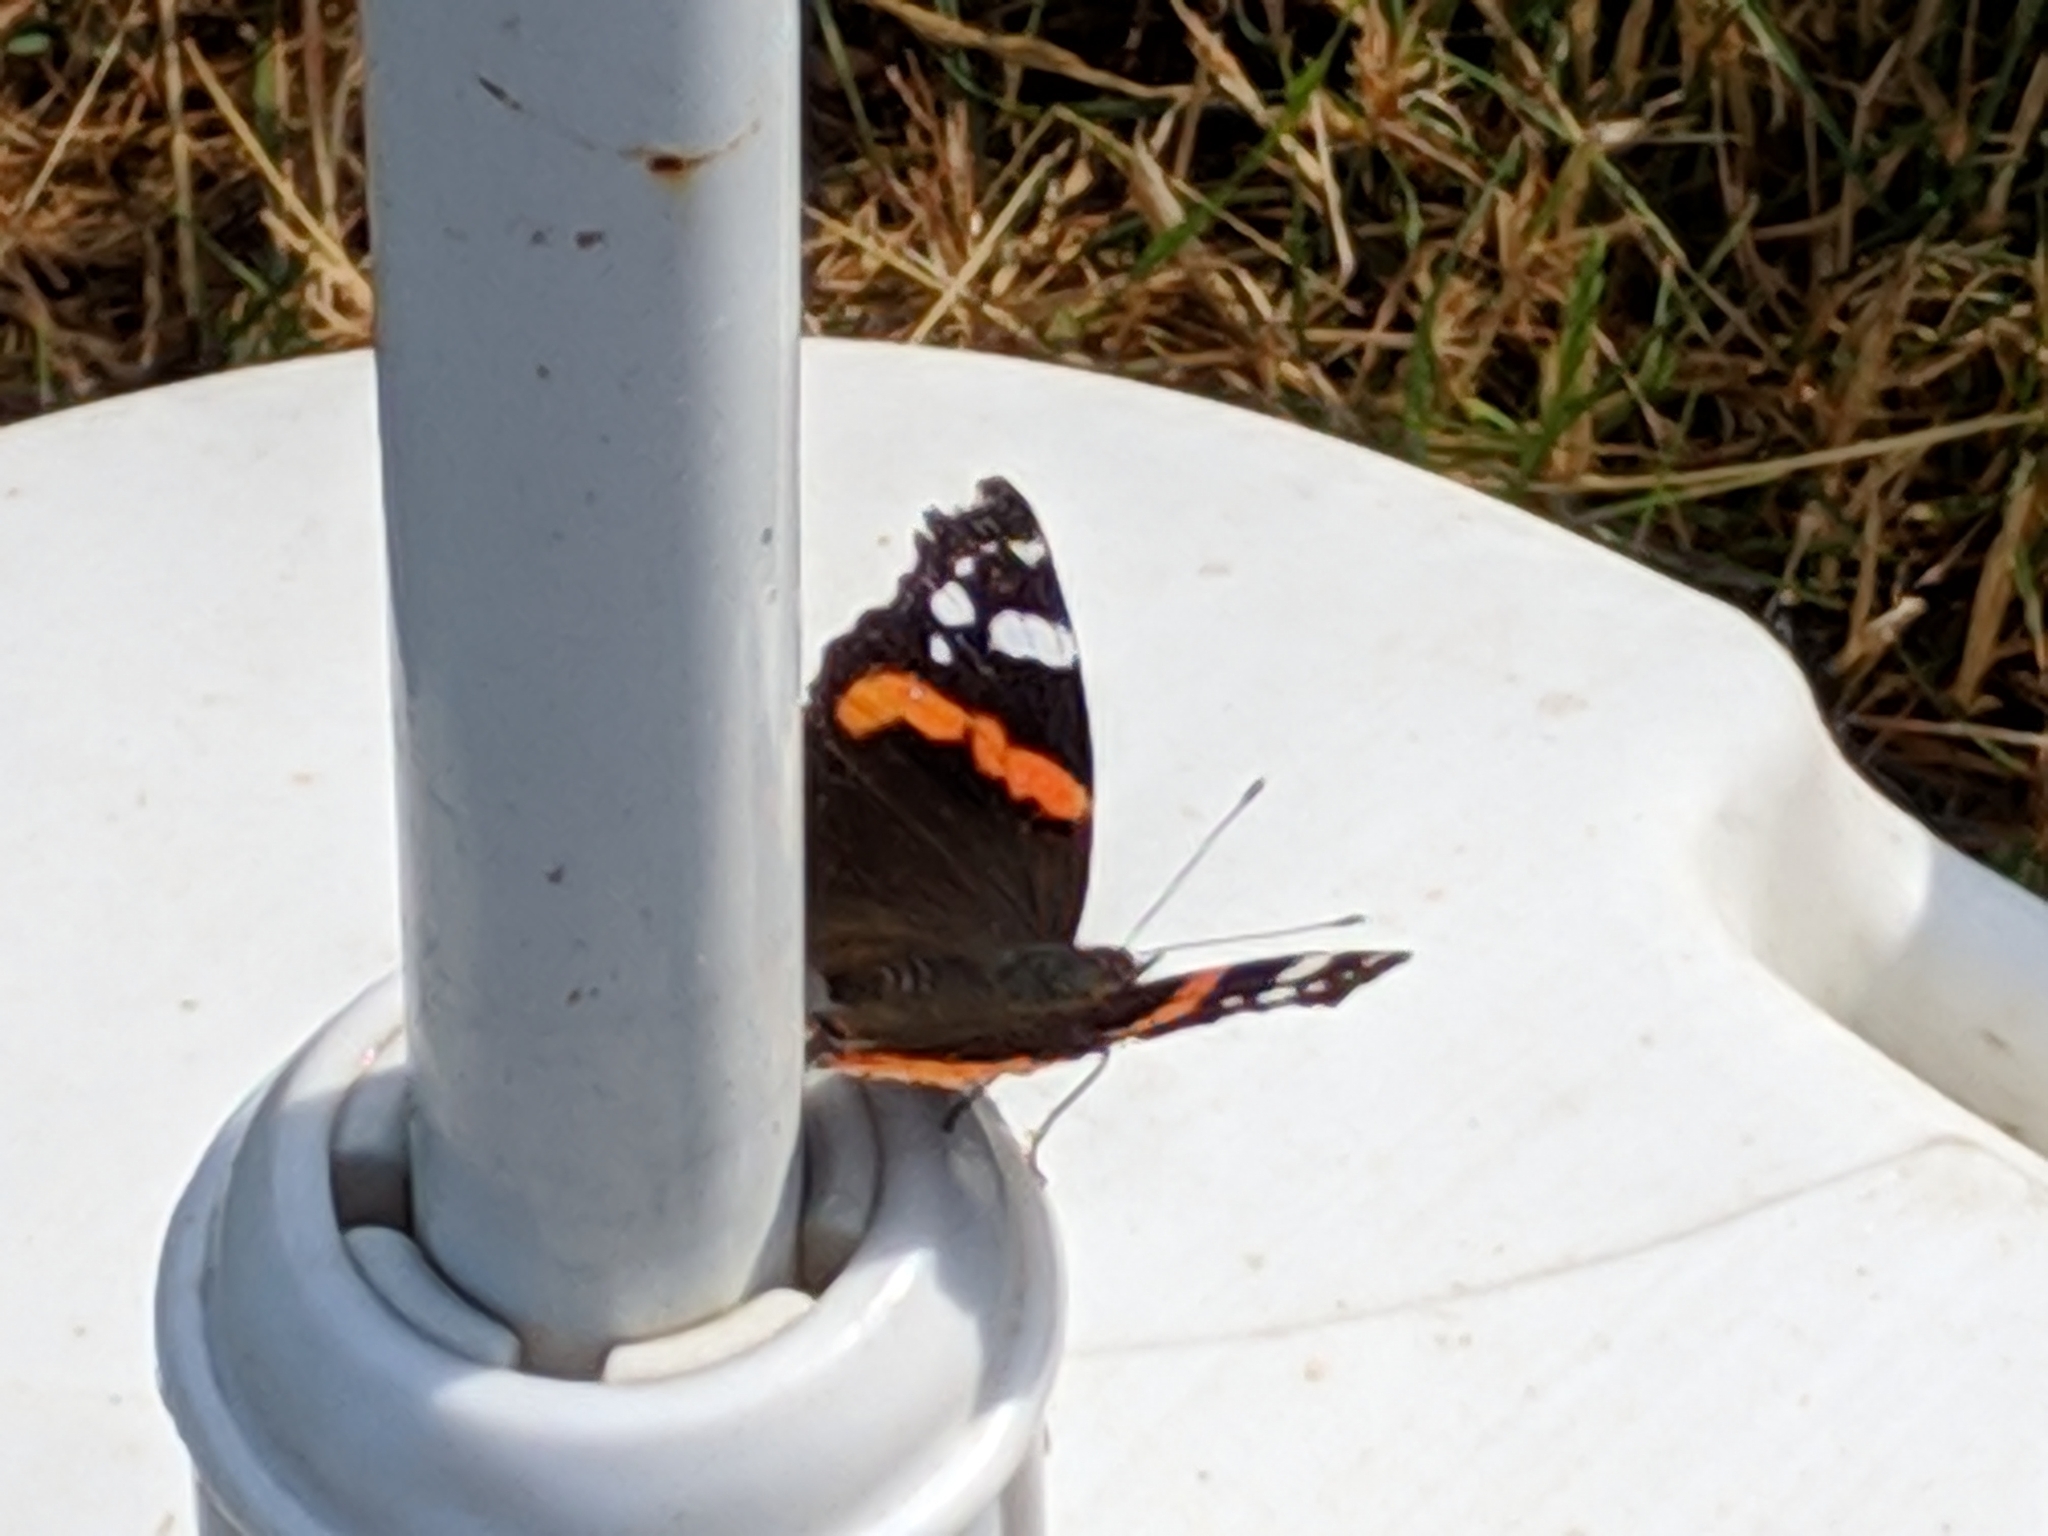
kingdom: Animalia
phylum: Arthropoda
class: Insecta
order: Lepidoptera
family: Nymphalidae
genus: Vanessa
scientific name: Vanessa atalanta
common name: Red admiral
